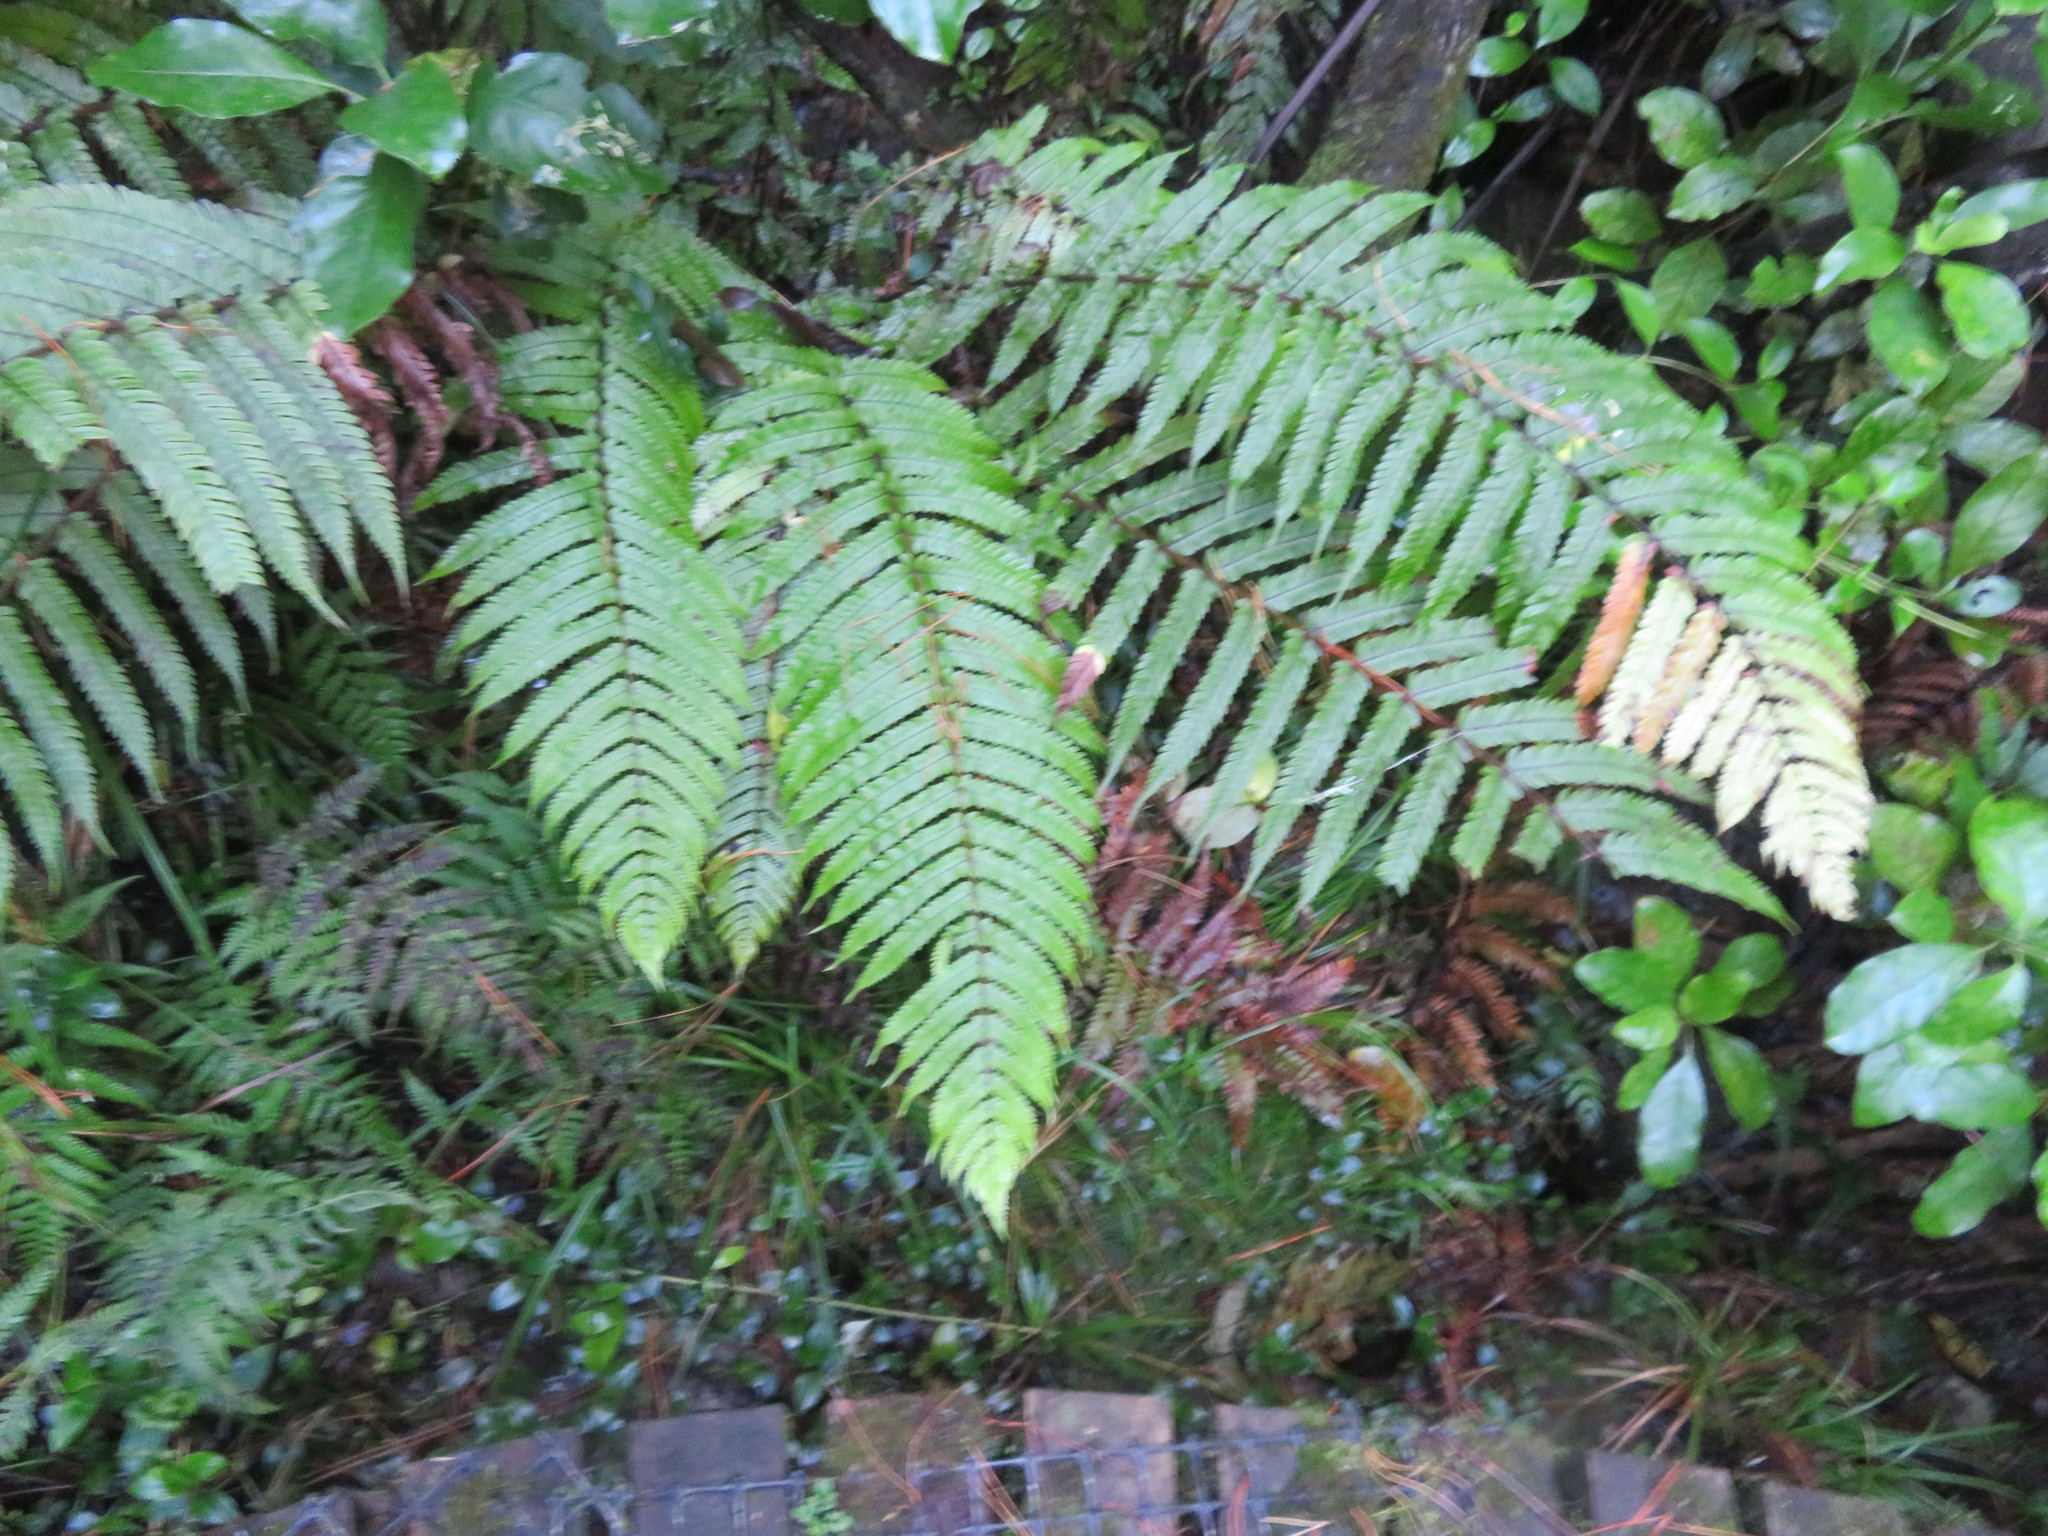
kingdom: Plantae
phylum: Tracheophyta
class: Polypodiopsida
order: Polypodiales
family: Thelypteridaceae
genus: Pakau
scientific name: Pakau pennigera
